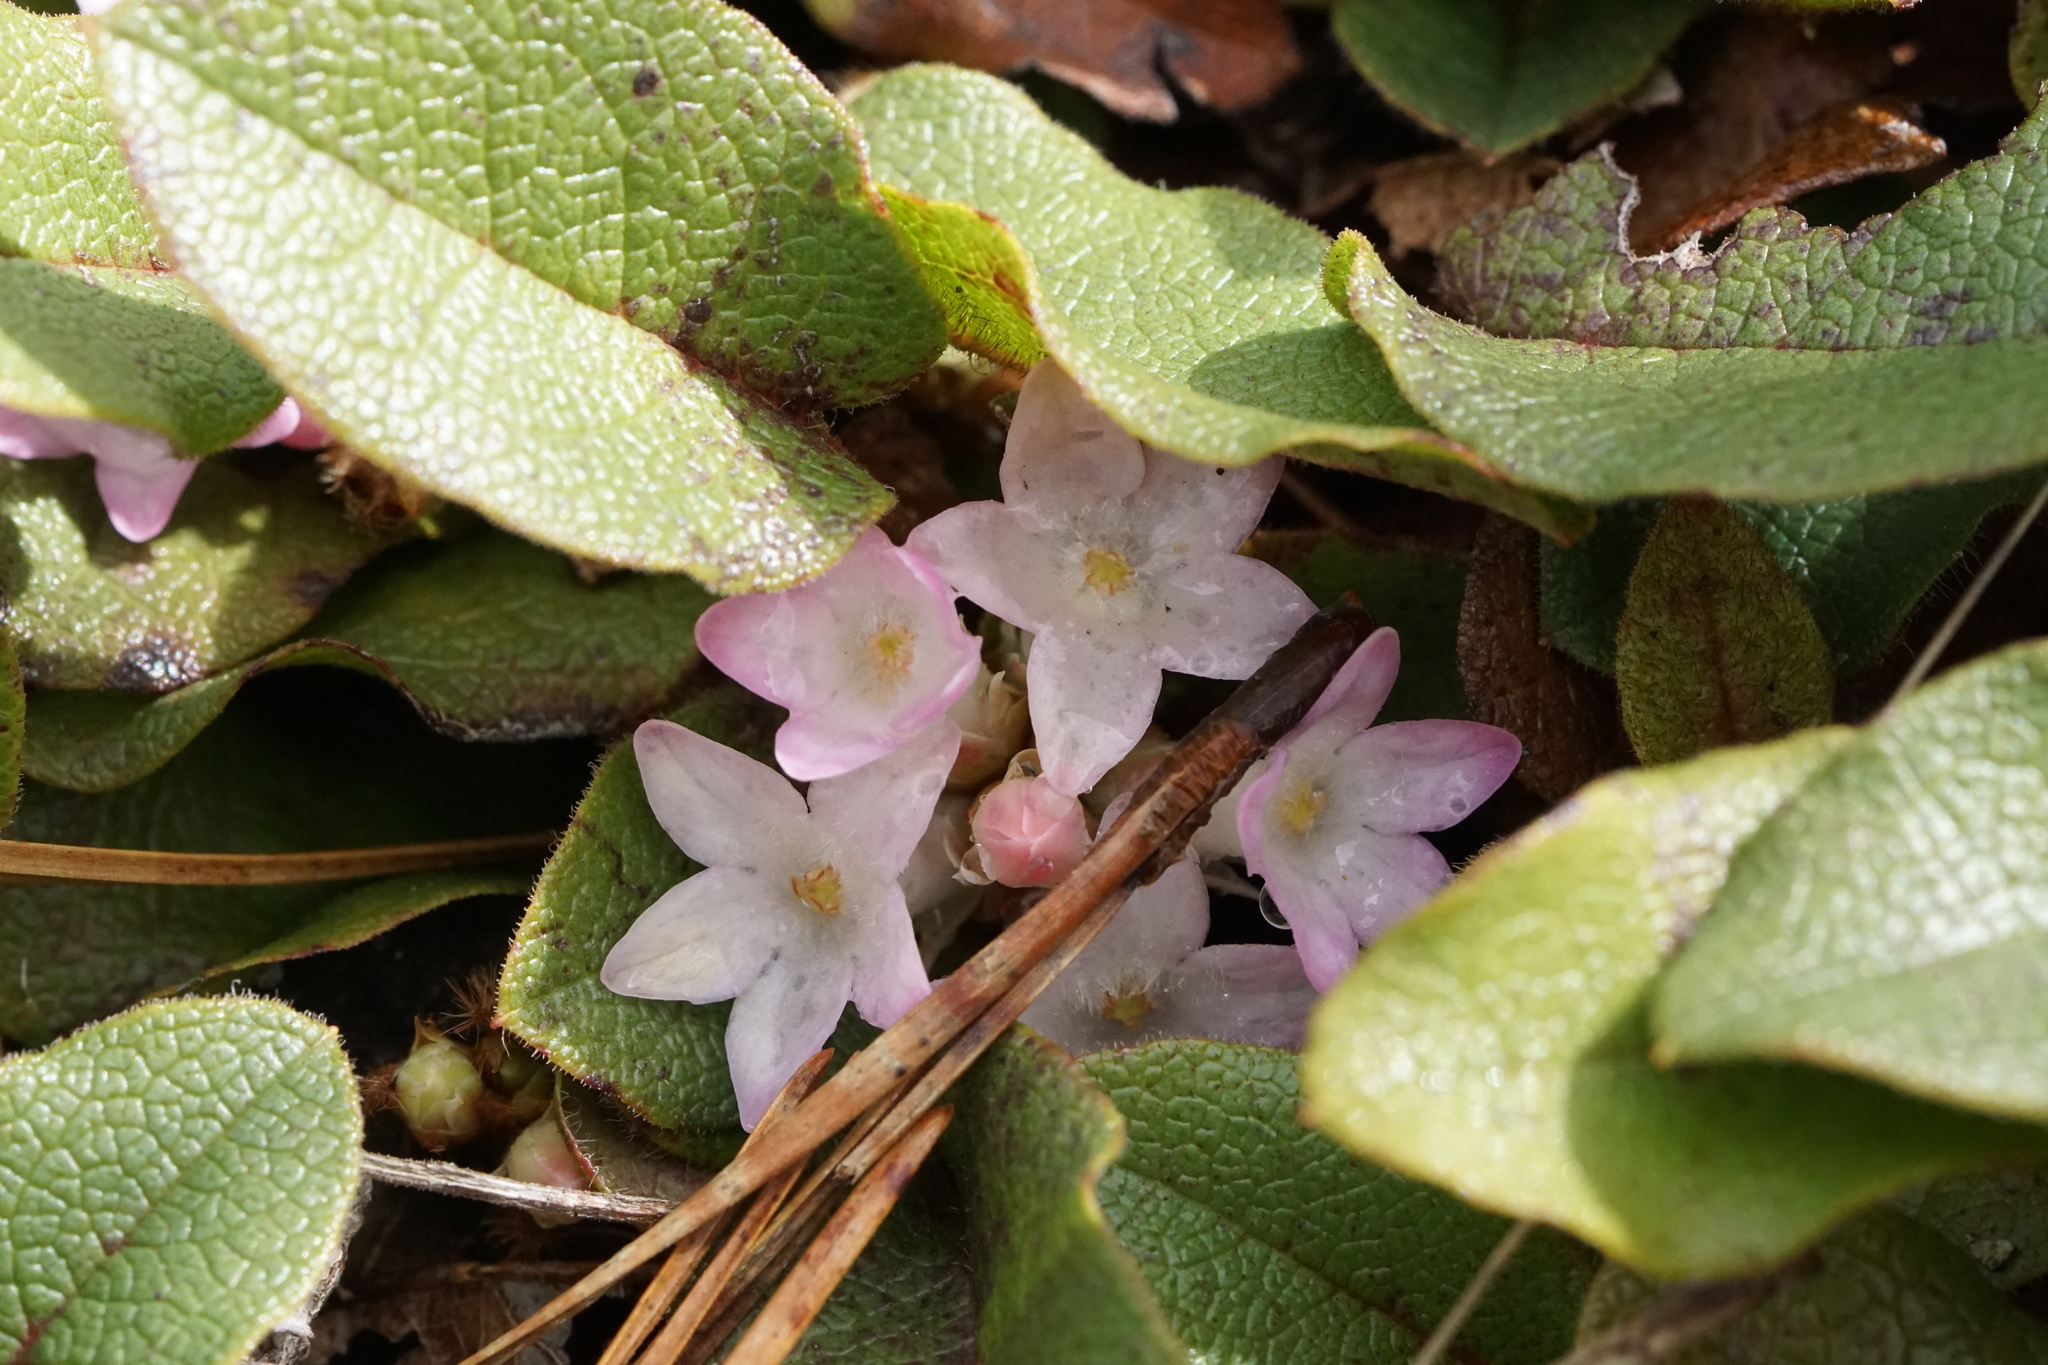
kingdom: Plantae
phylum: Tracheophyta
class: Magnoliopsida
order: Ericales
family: Ericaceae
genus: Epigaea
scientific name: Epigaea repens
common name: Gravelroot
